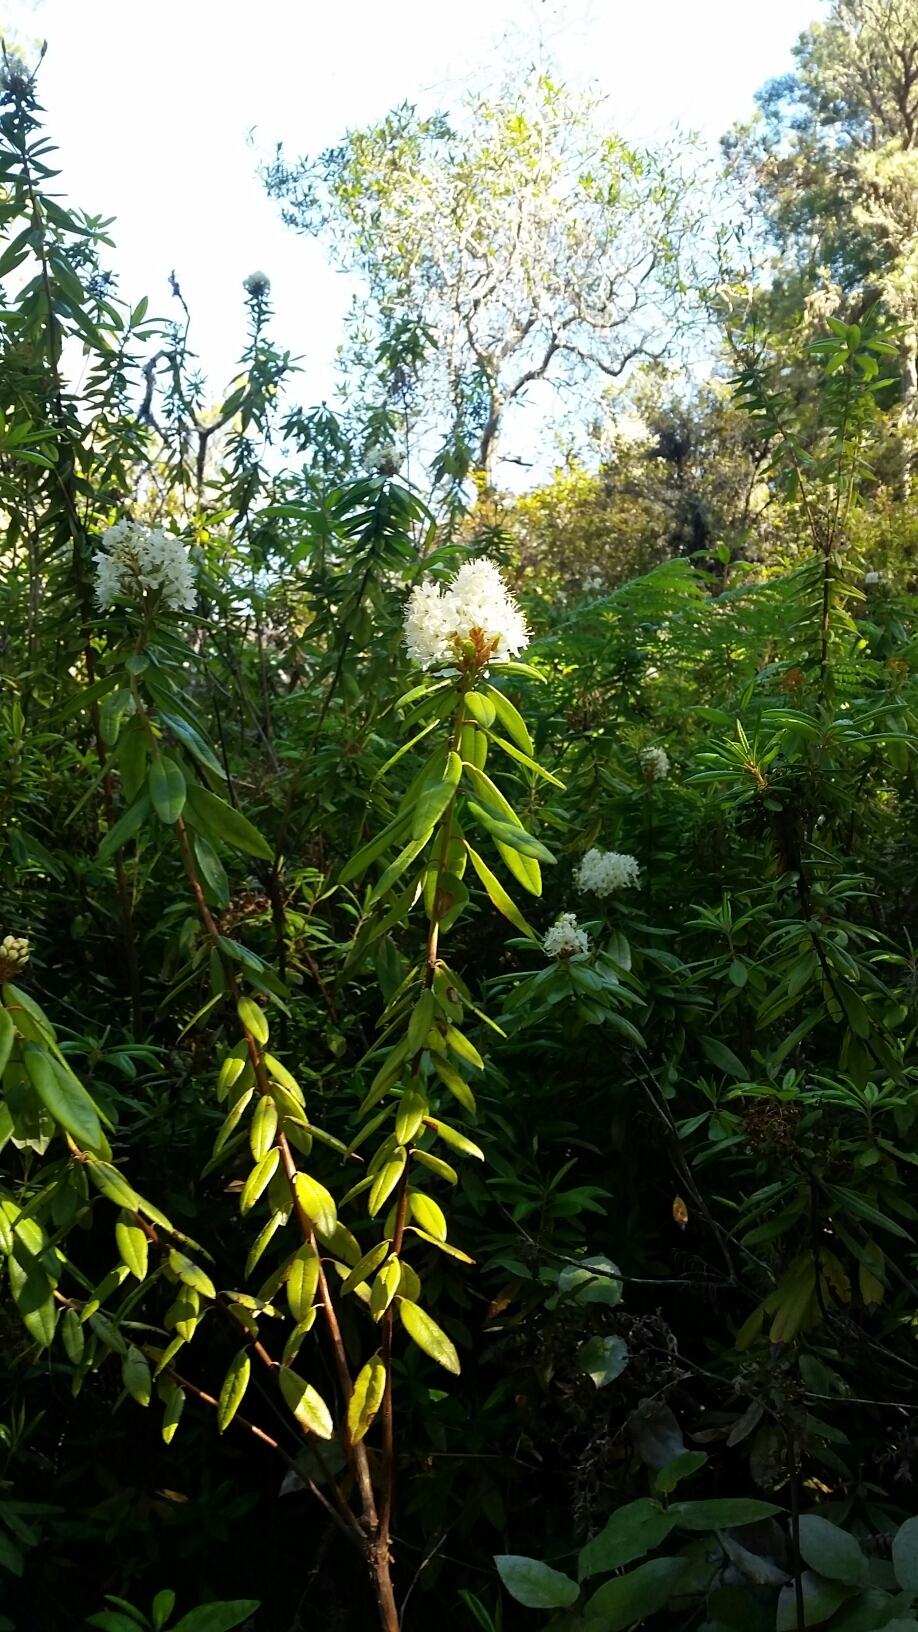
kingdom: Plantae
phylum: Tracheophyta
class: Magnoliopsida
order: Ericales
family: Ericaceae
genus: Rhododendron
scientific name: Rhododendron columbianum
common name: Western labrador tea
